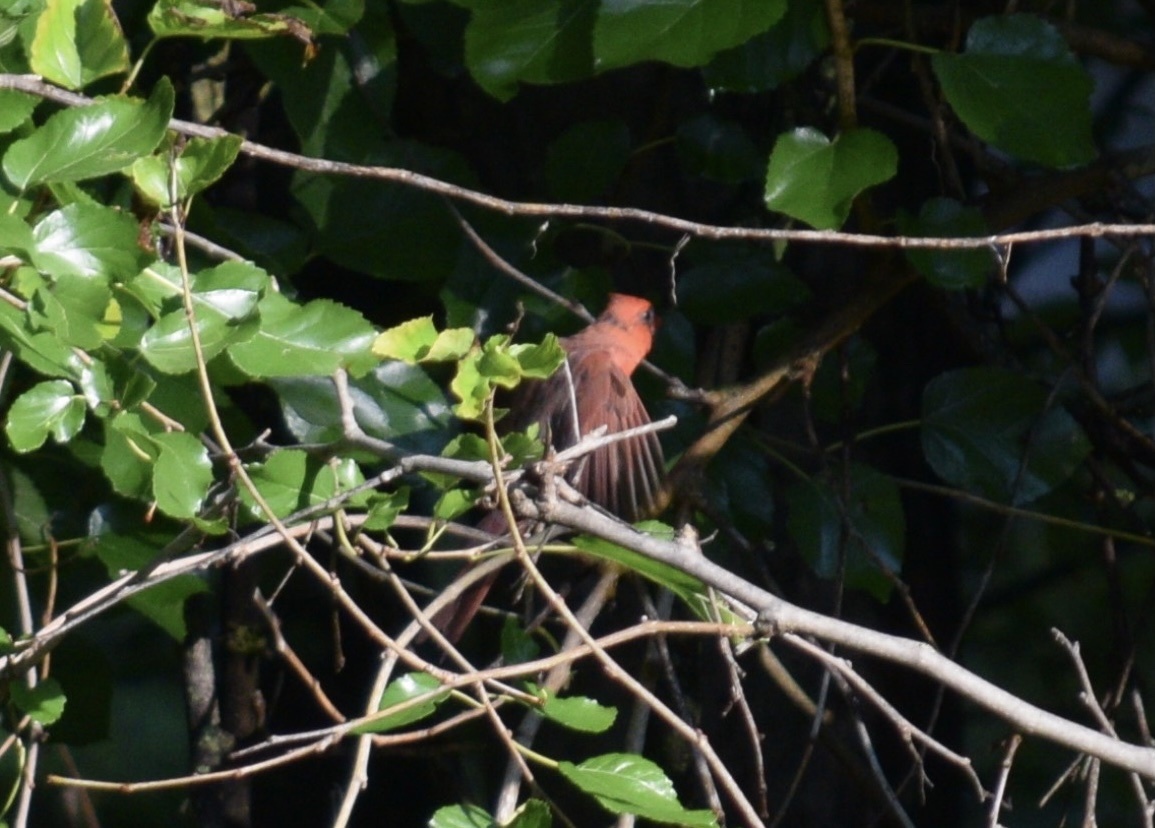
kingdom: Animalia
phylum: Chordata
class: Aves
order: Passeriformes
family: Cardinalidae
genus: Cardinalis
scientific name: Cardinalis cardinalis
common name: Northern cardinal
